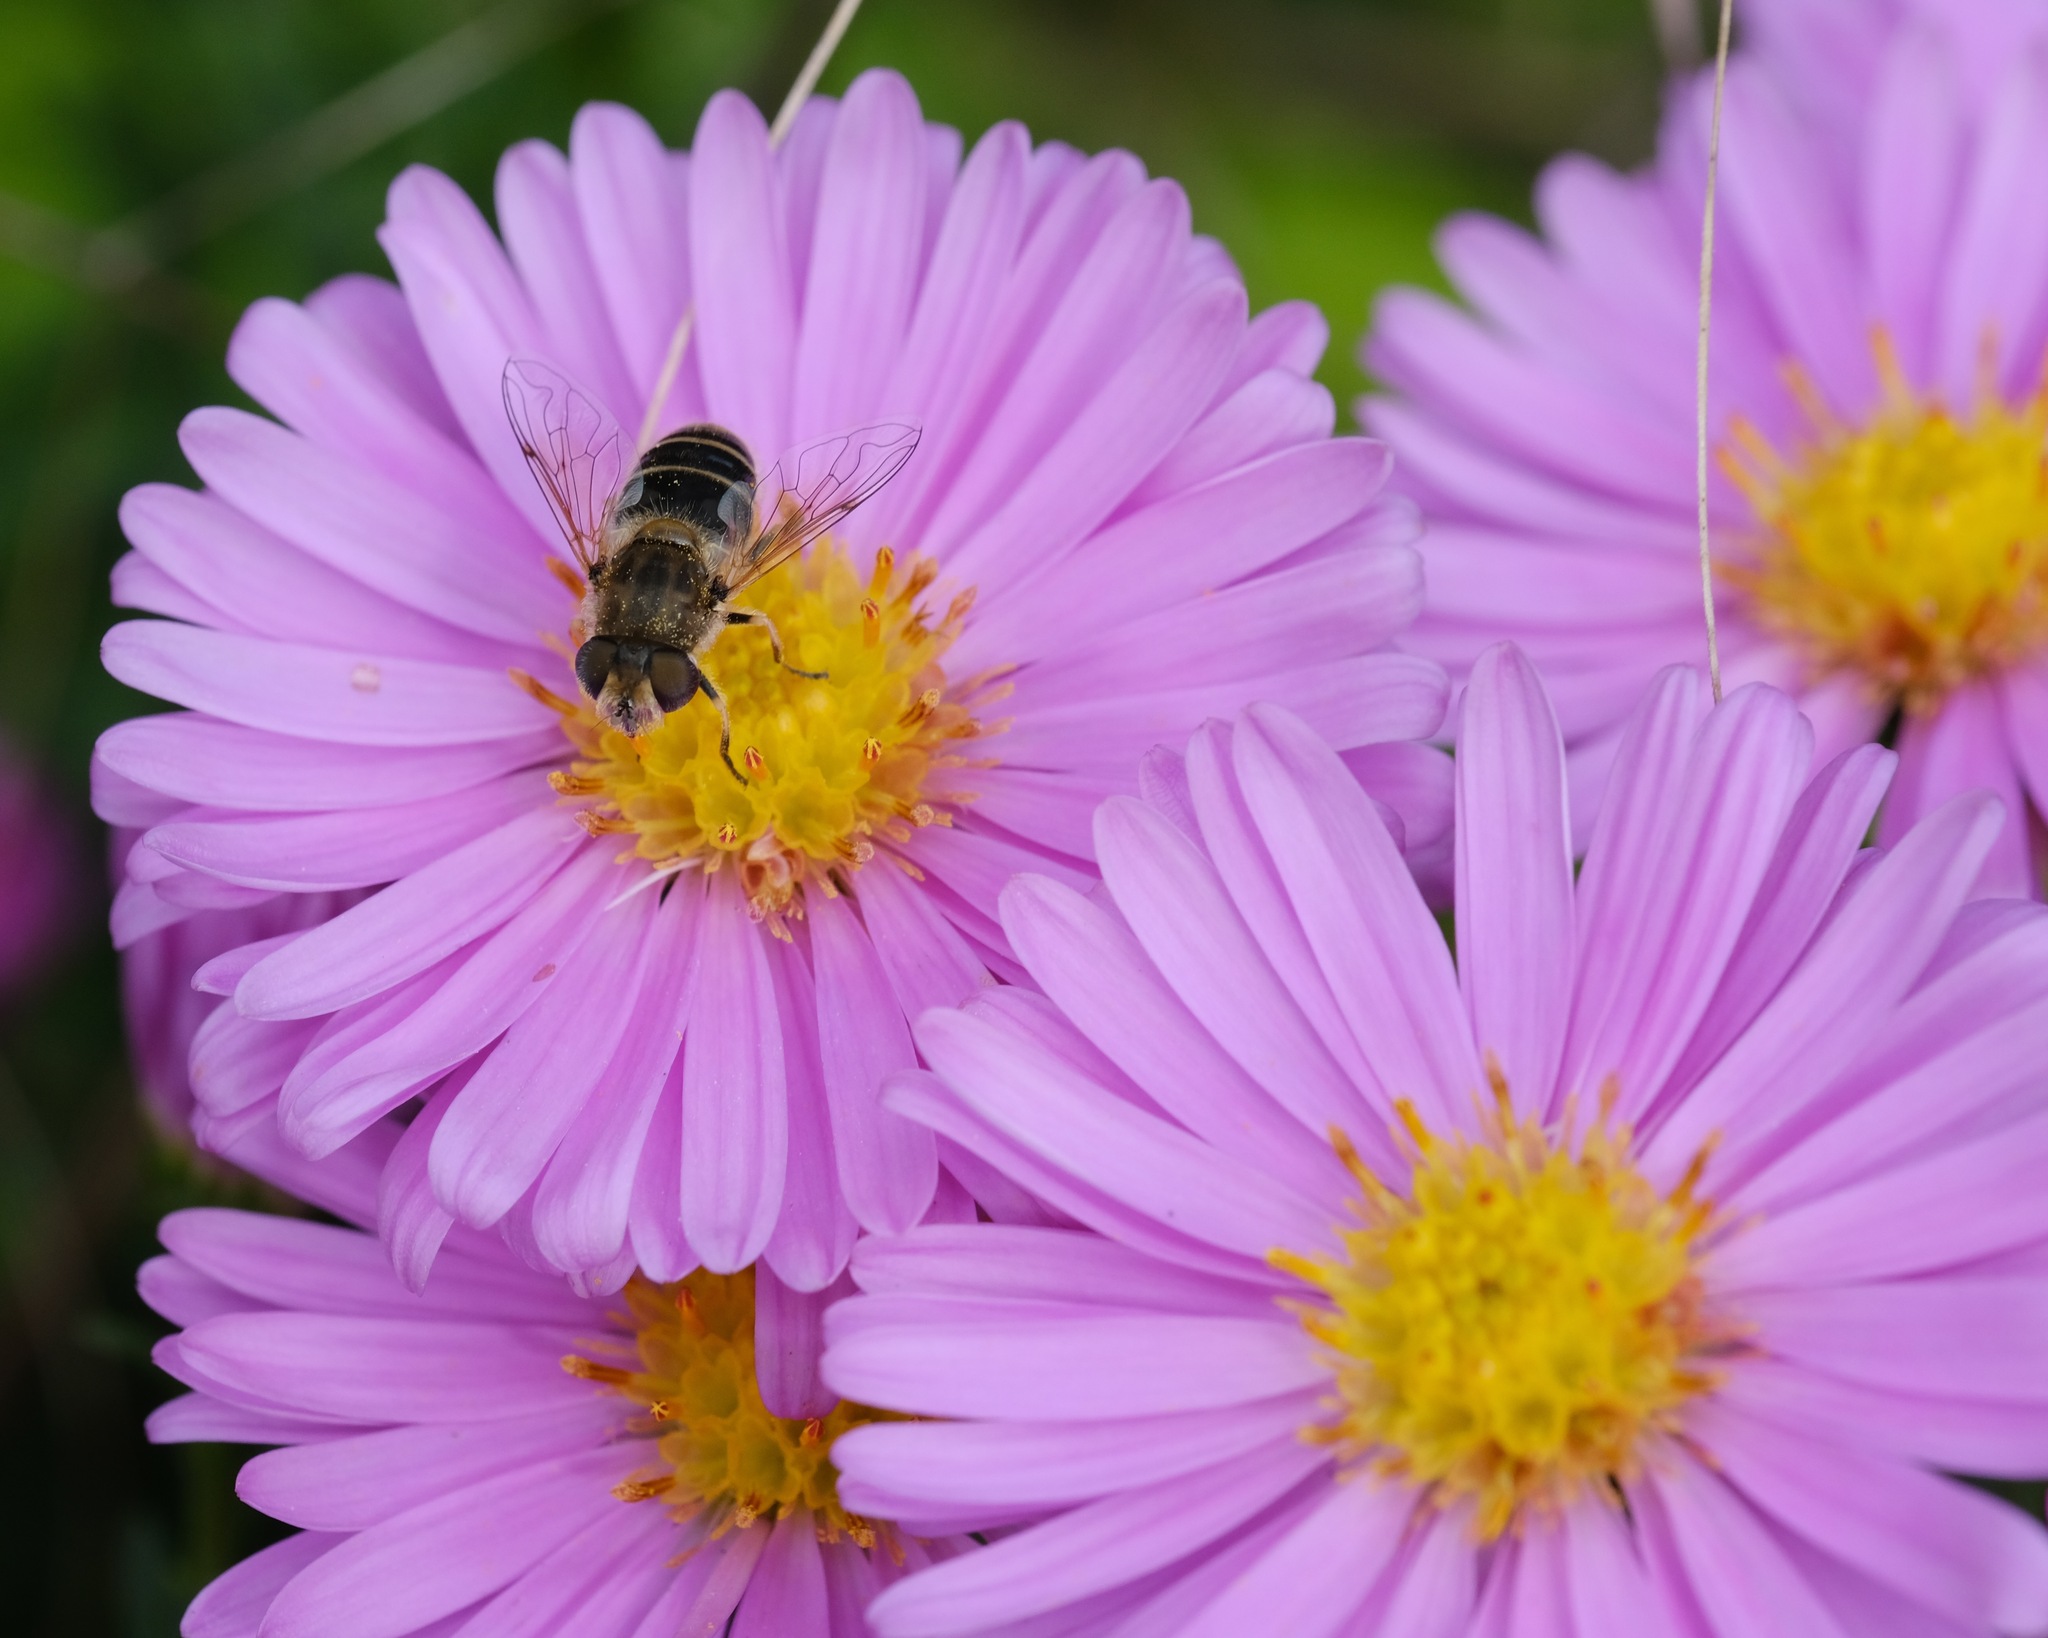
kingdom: Animalia
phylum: Arthropoda
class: Insecta
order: Diptera
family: Syrphidae
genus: Eristalis
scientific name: Eristalis arbustorum
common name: Hover fly
